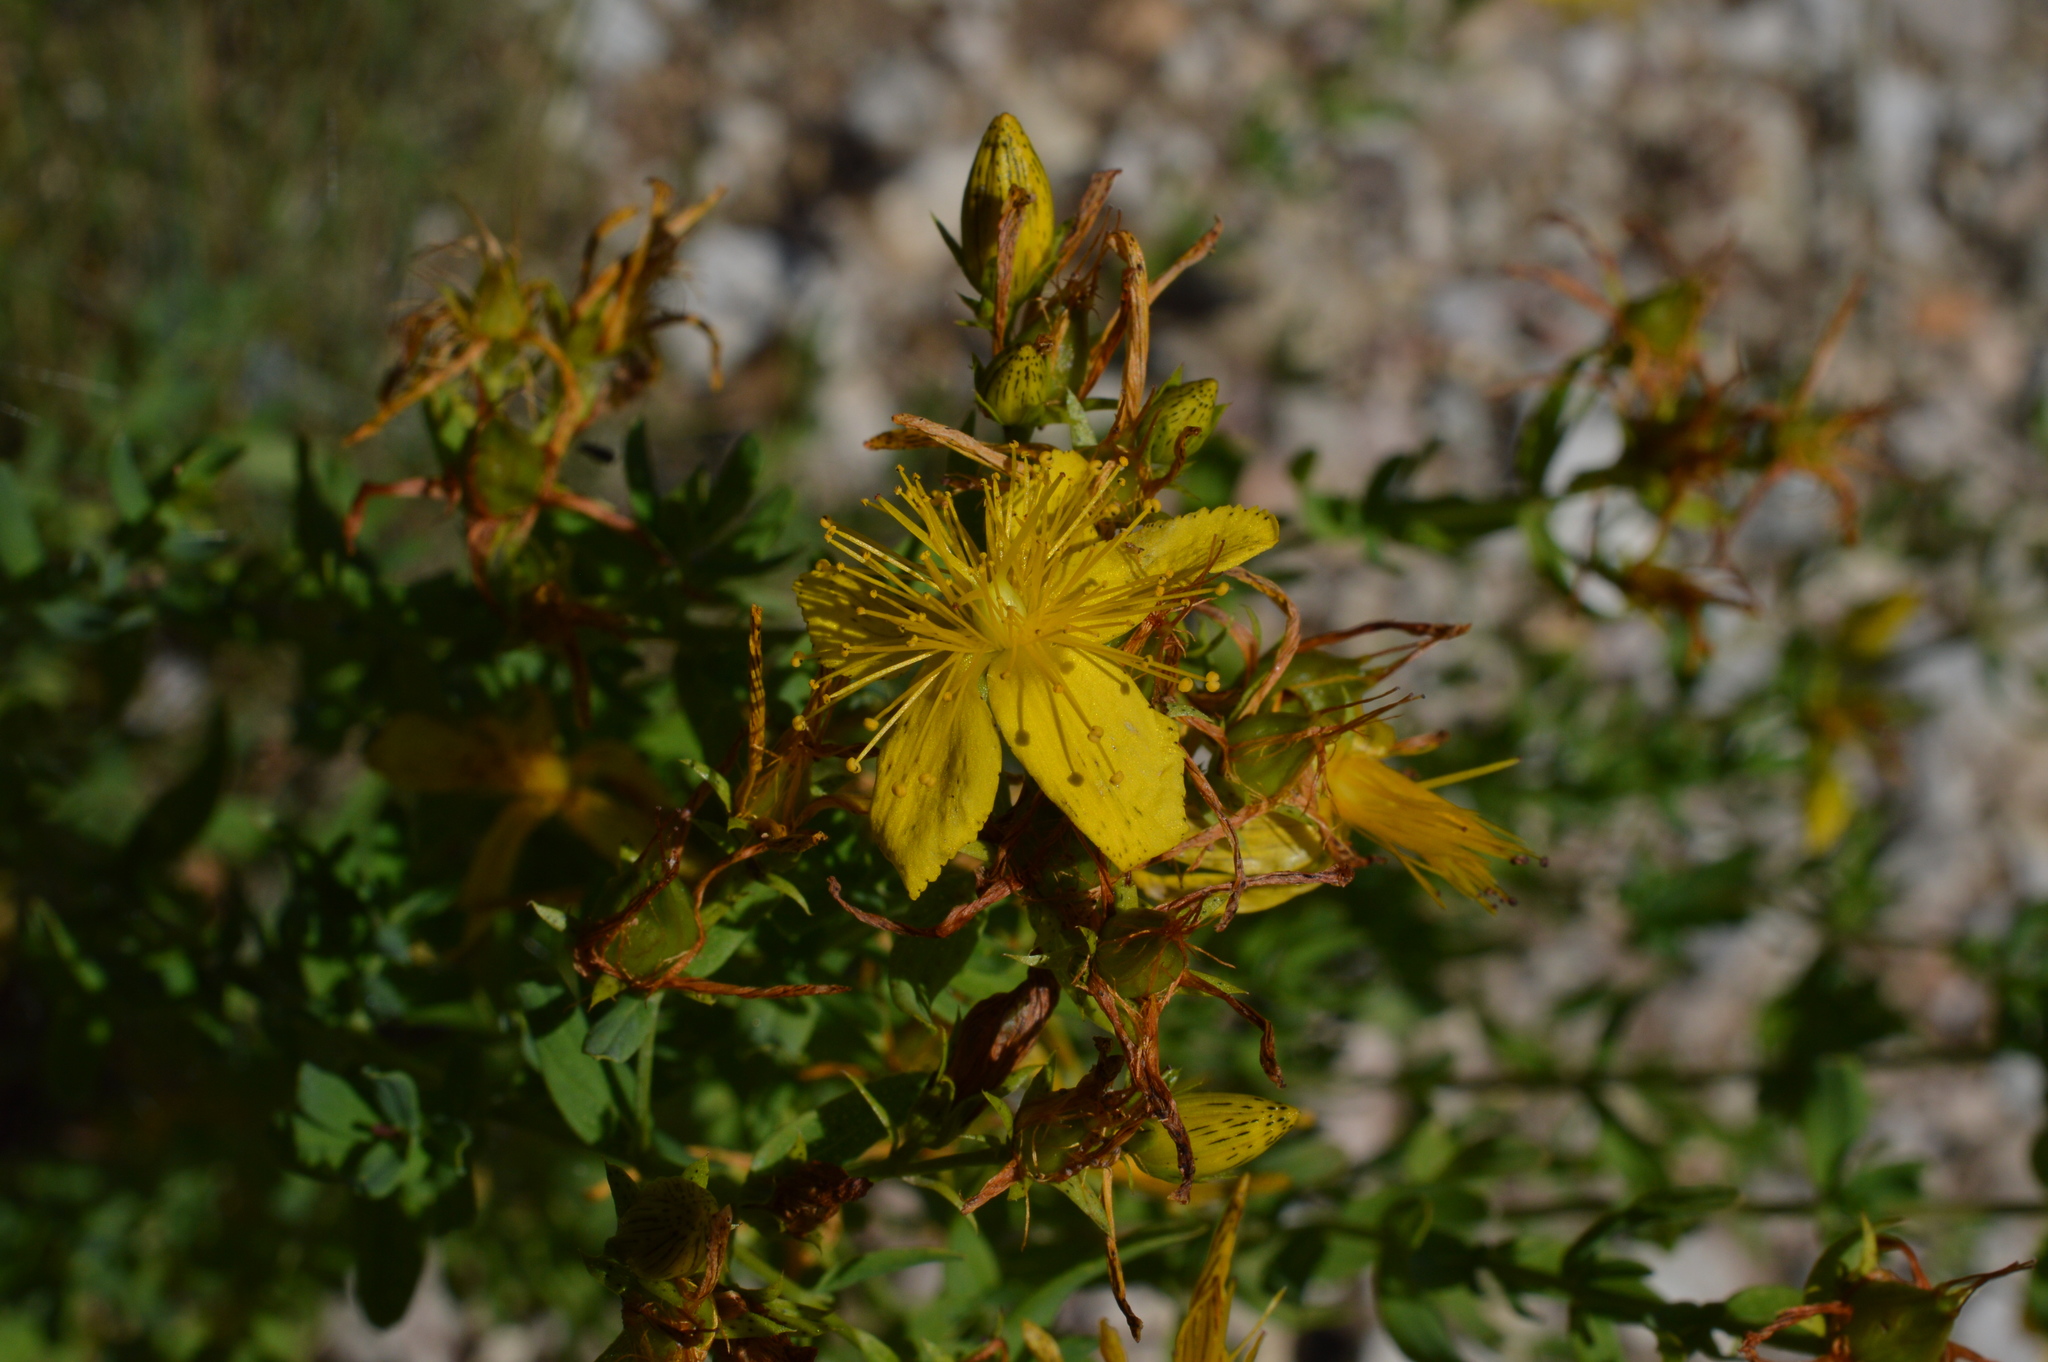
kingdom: Plantae
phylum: Tracheophyta
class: Magnoliopsida
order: Malpighiales
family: Hypericaceae
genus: Hypericum
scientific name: Hypericum perforatum
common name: Common st. johnswort
